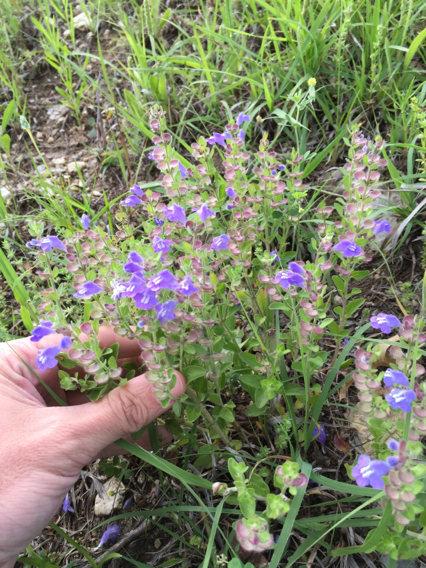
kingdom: Plantae
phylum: Tracheophyta
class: Magnoliopsida
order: Lamiales
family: Lamiaceae
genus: Scutellaria
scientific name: Scutellaria drummondii
